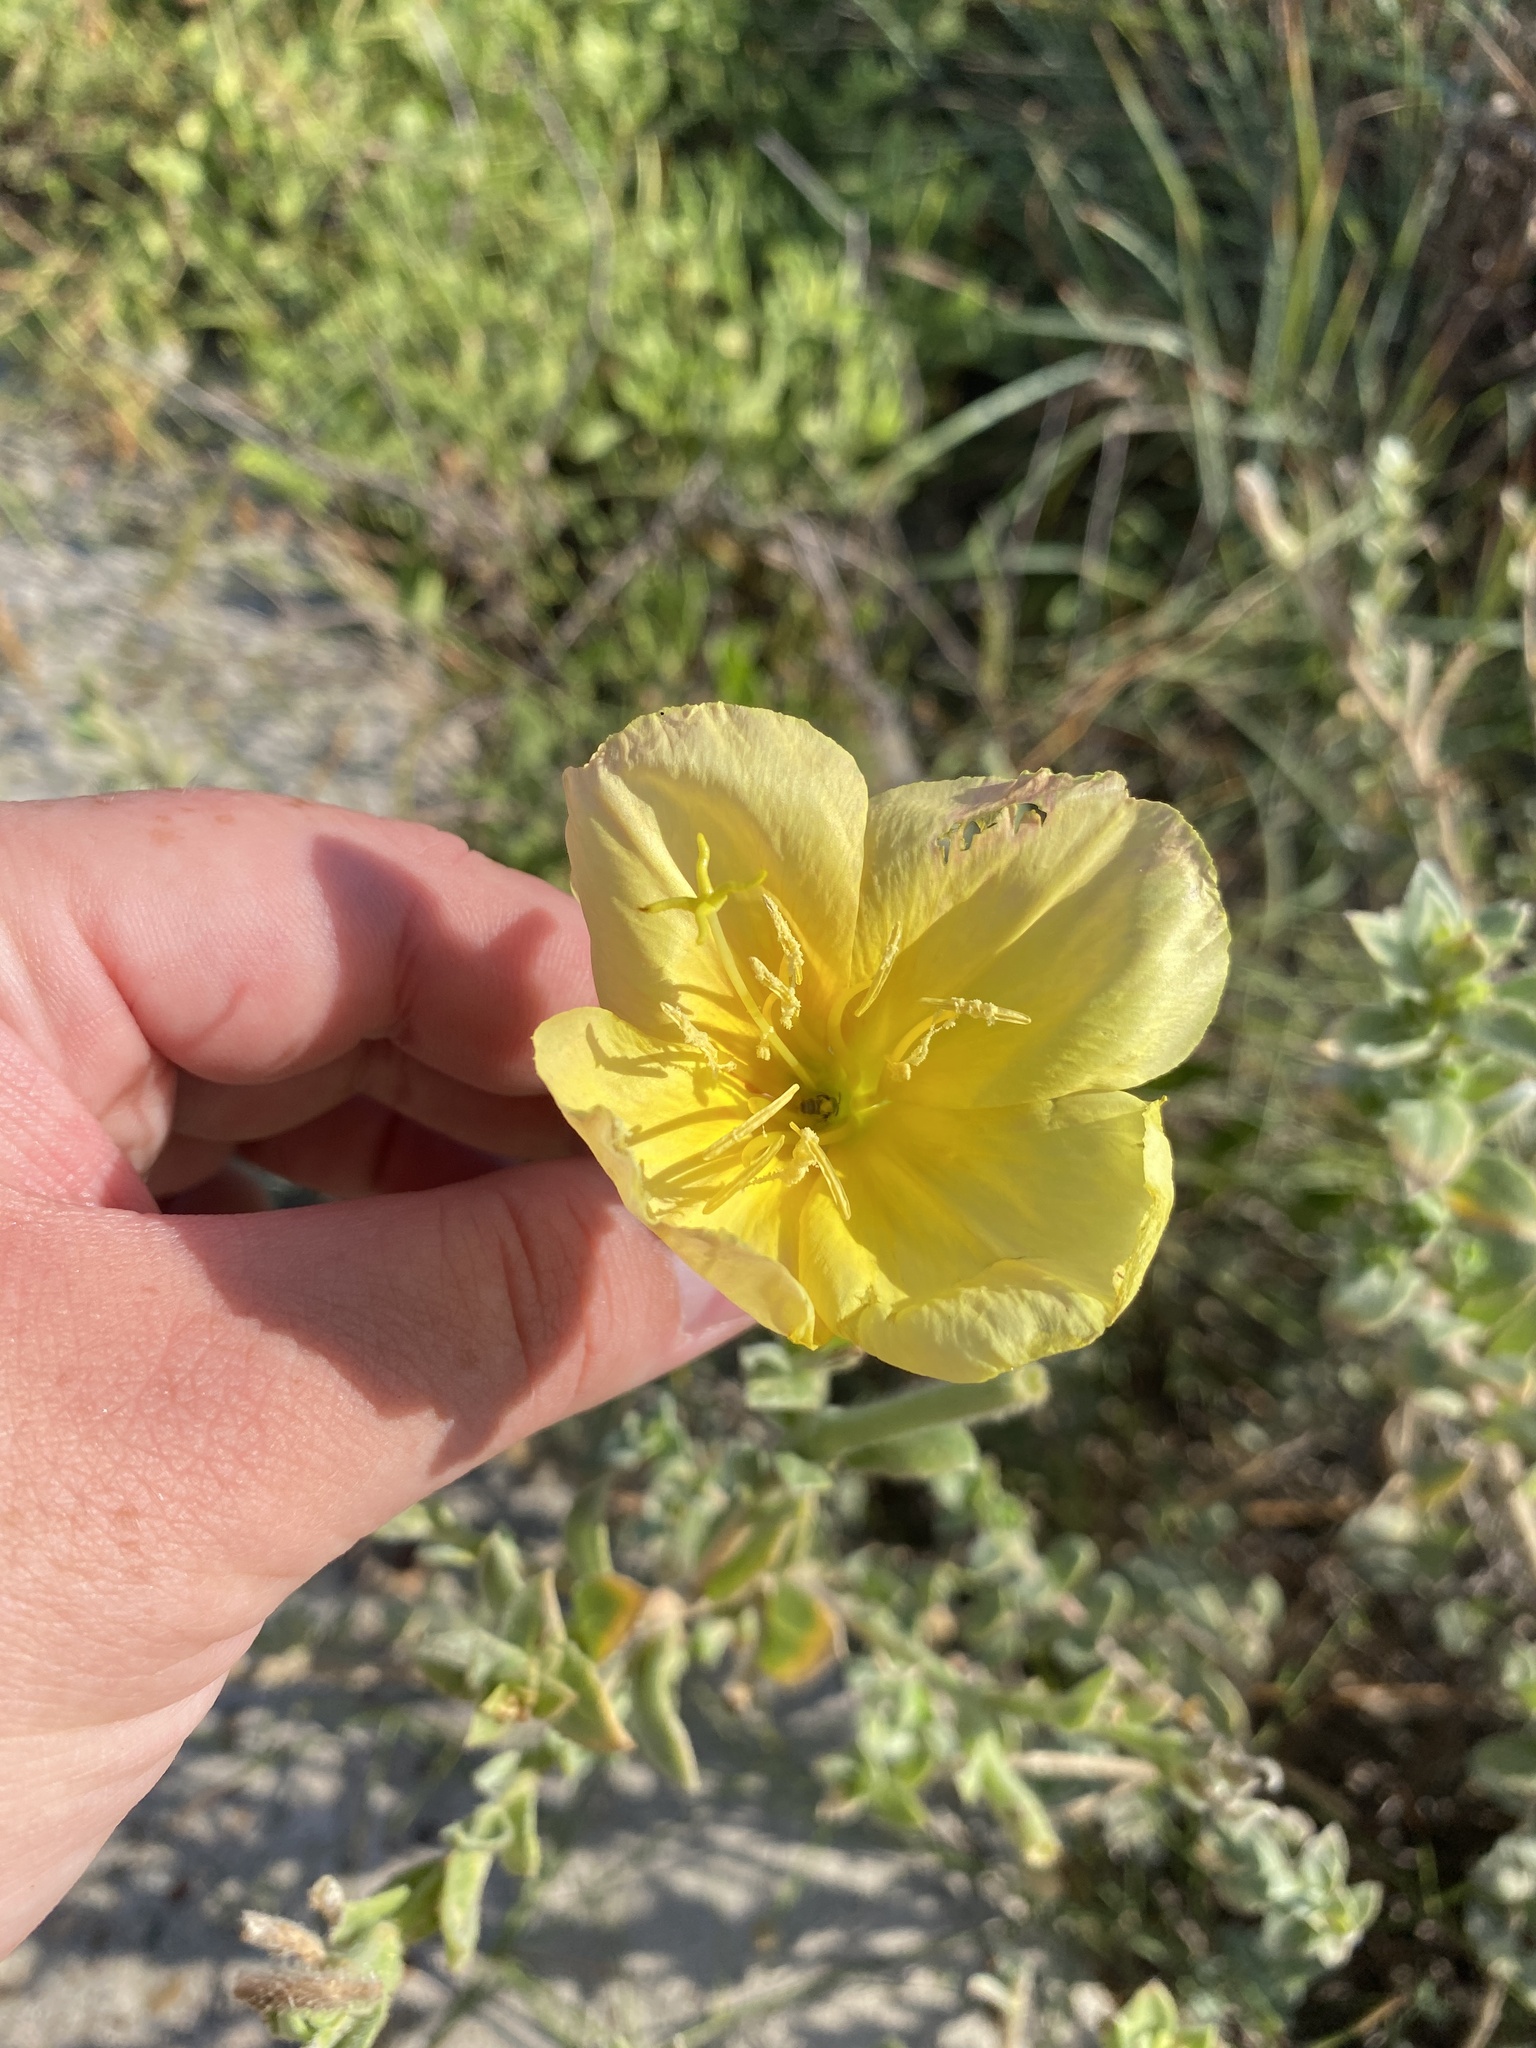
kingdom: Plantae
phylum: Tracheophyta
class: Magnoliopsida
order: Myrtales
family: Onagraceae
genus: Oenothera
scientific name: Oenothera drummondii
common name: Beach evening-primrose
